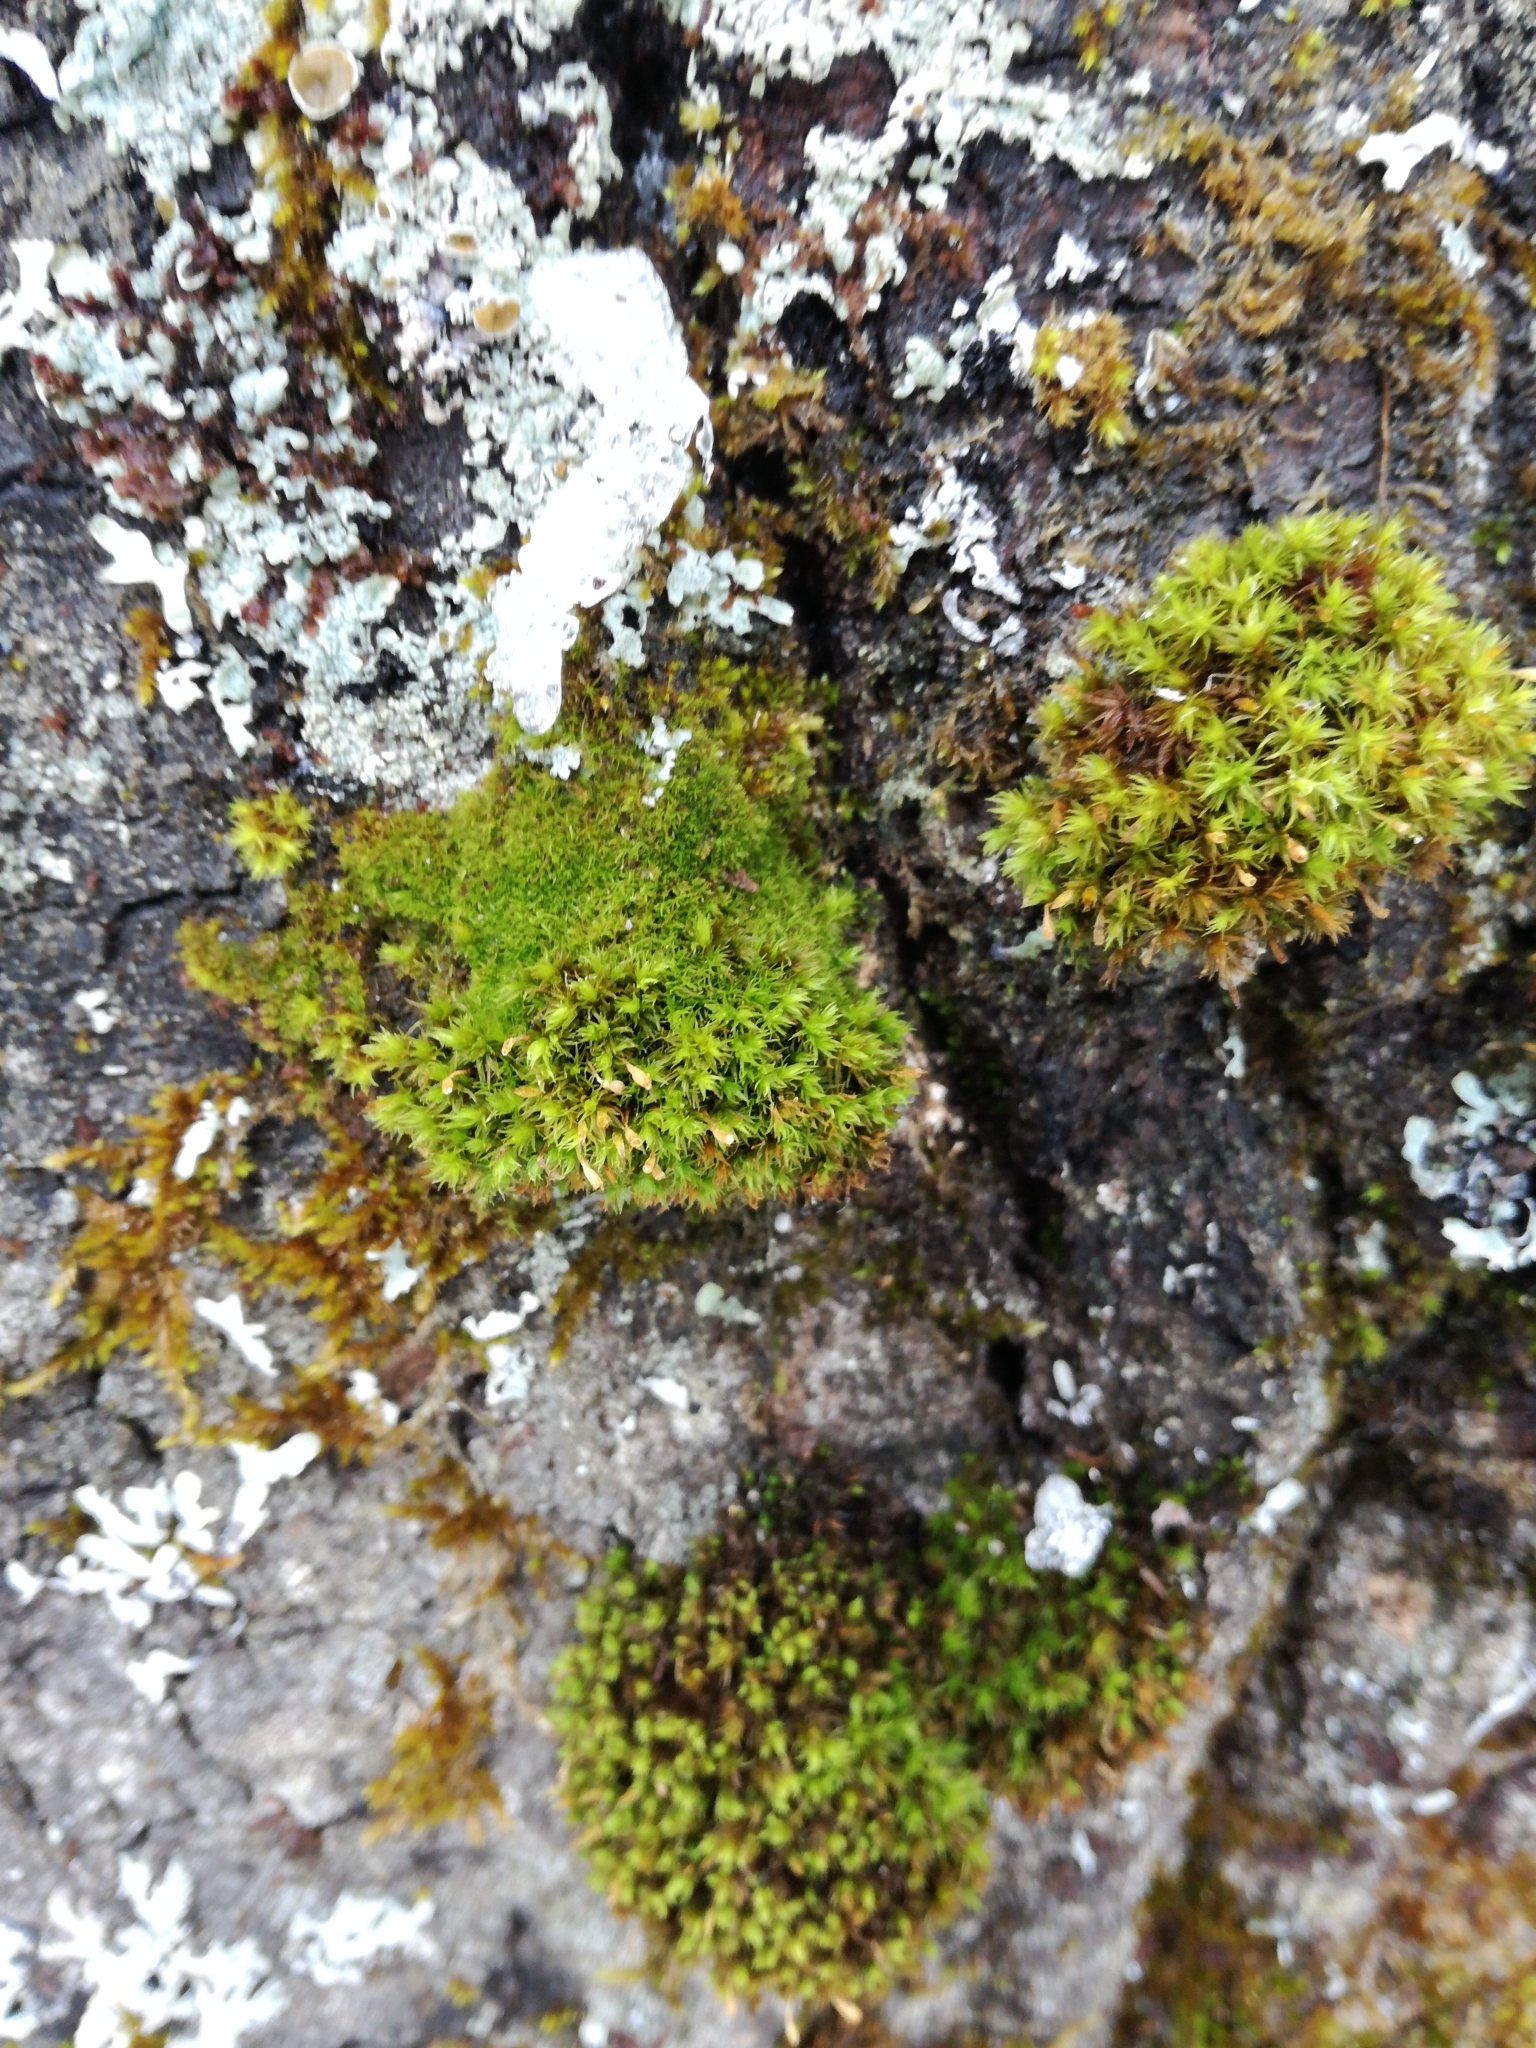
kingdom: Plantae
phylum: Bryophyta
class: Bryopsida
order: Orthotrichales
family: Orthotrichaceae
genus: Ulota
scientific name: Ulota crispa
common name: Crisped pincushion moss
